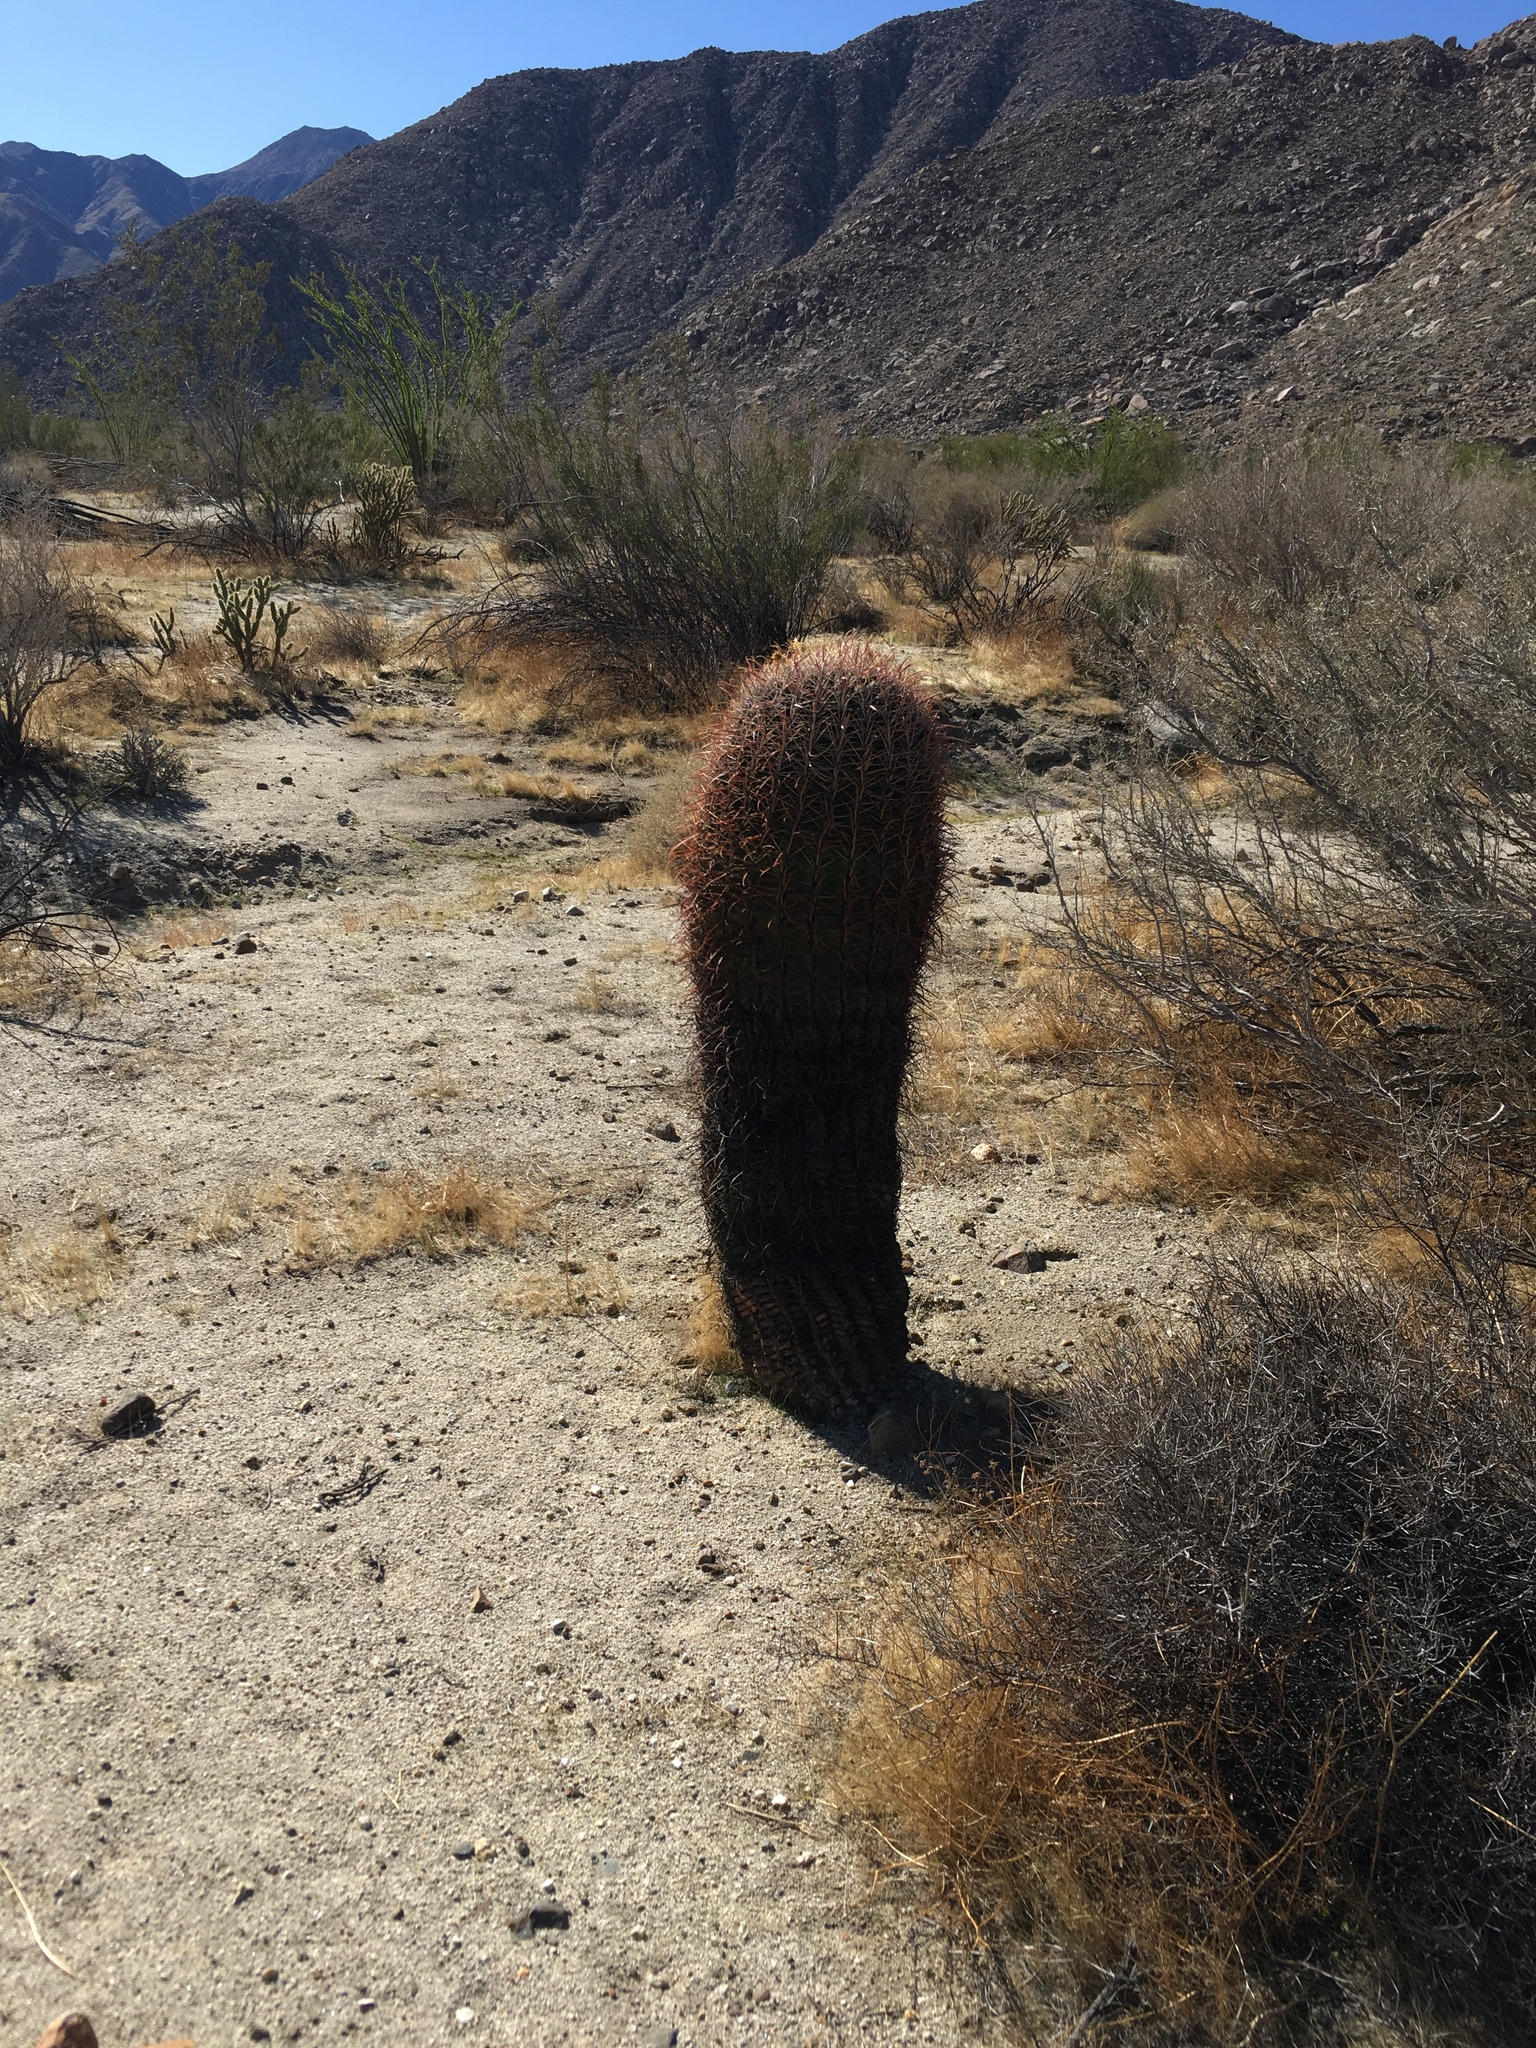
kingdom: Plantae
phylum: Tracheophyta
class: Magnoliopsida
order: Caryophyllales
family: Cactaceae
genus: Ferocactus
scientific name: Ferocactus cylindraceus
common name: California barrel cactus
